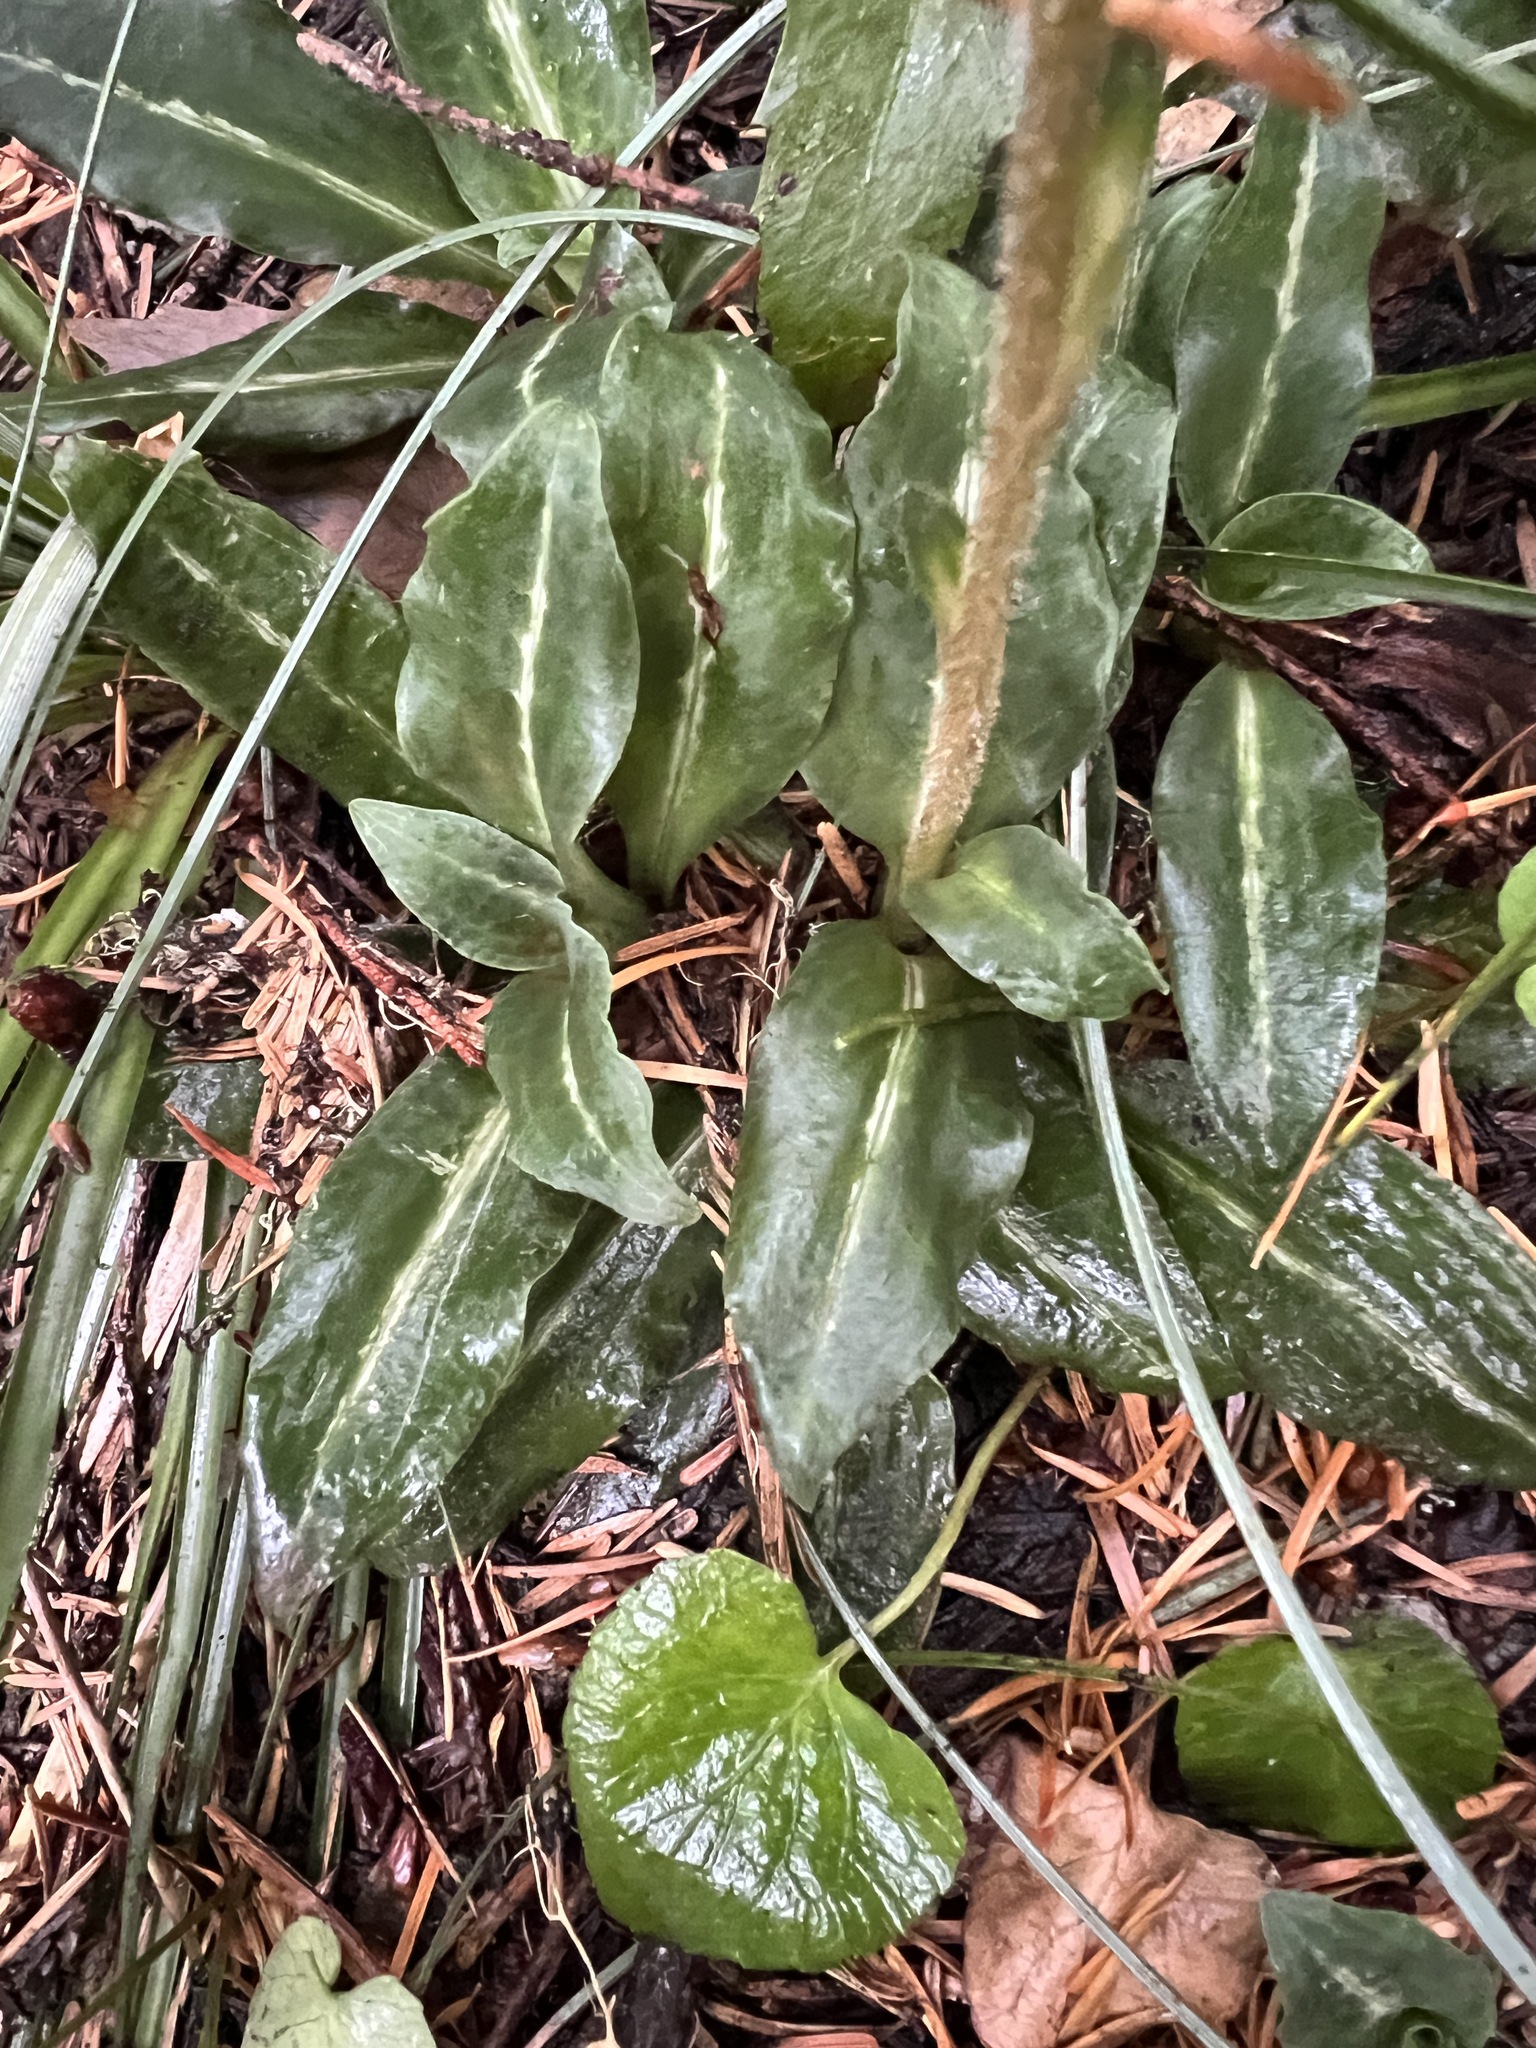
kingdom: Plantae
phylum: Tracheophyta
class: Liliopsida
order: Asparagales
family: Orchidaceae
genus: Goodyera
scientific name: Goodyera oblongifolia
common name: Giant rattlesnake-plantain
